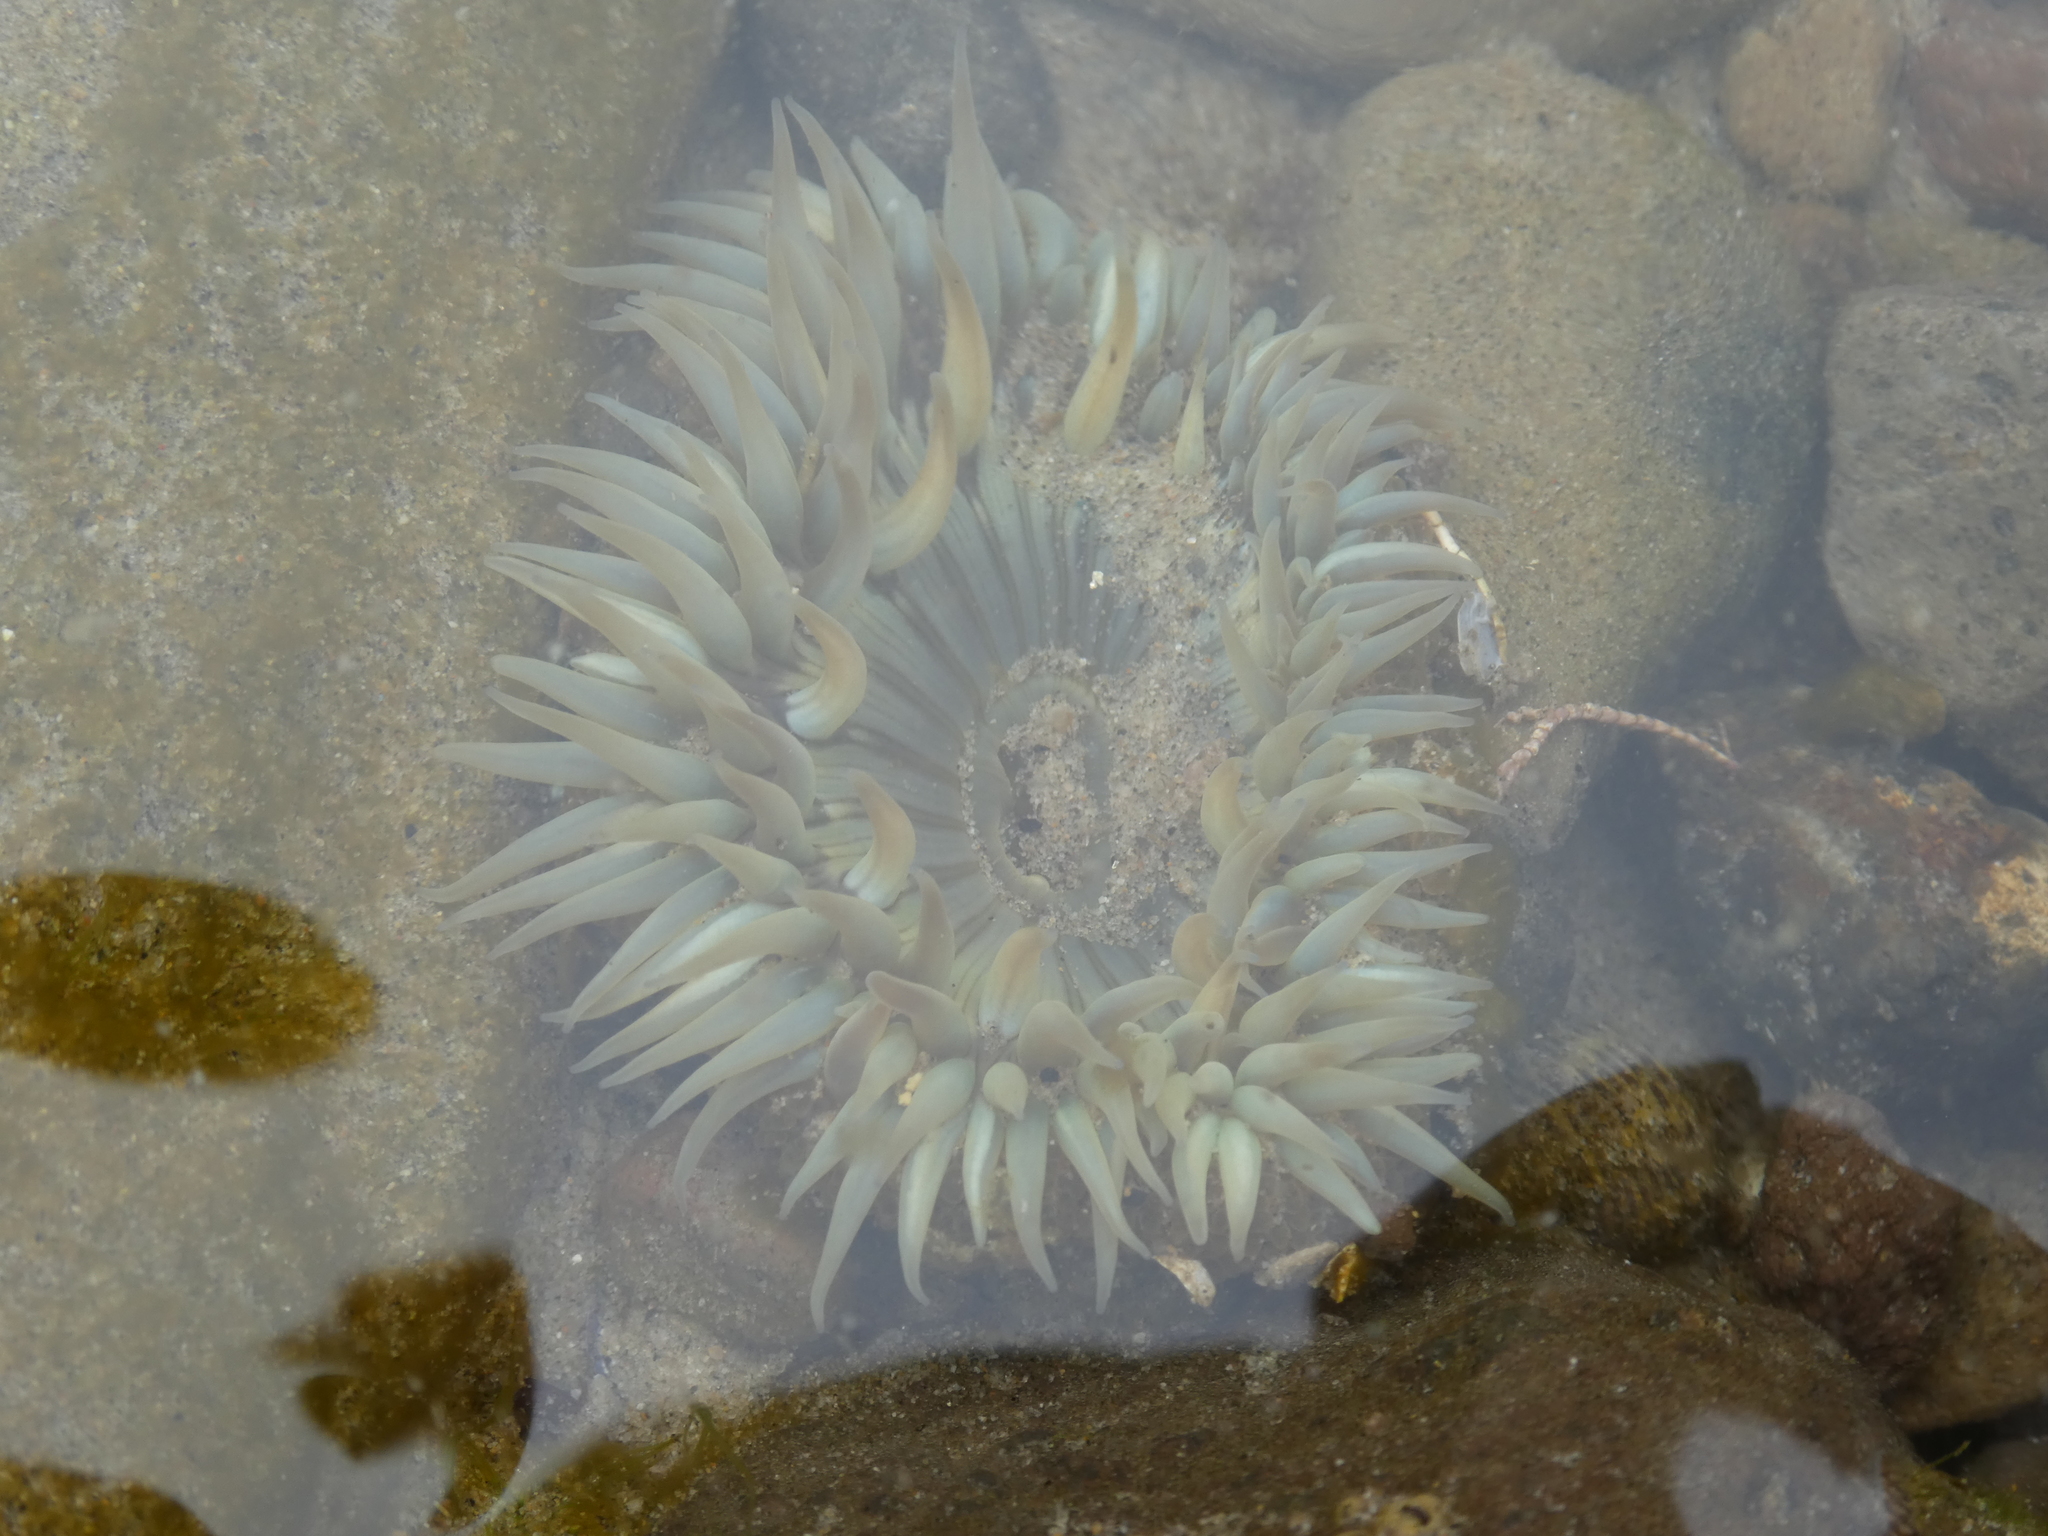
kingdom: Animalia
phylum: Cnidaria
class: Anthozoa
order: Actiniaria
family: Actiniidae
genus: Anthopleura
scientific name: Anthopleura sola
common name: Sun anemone
